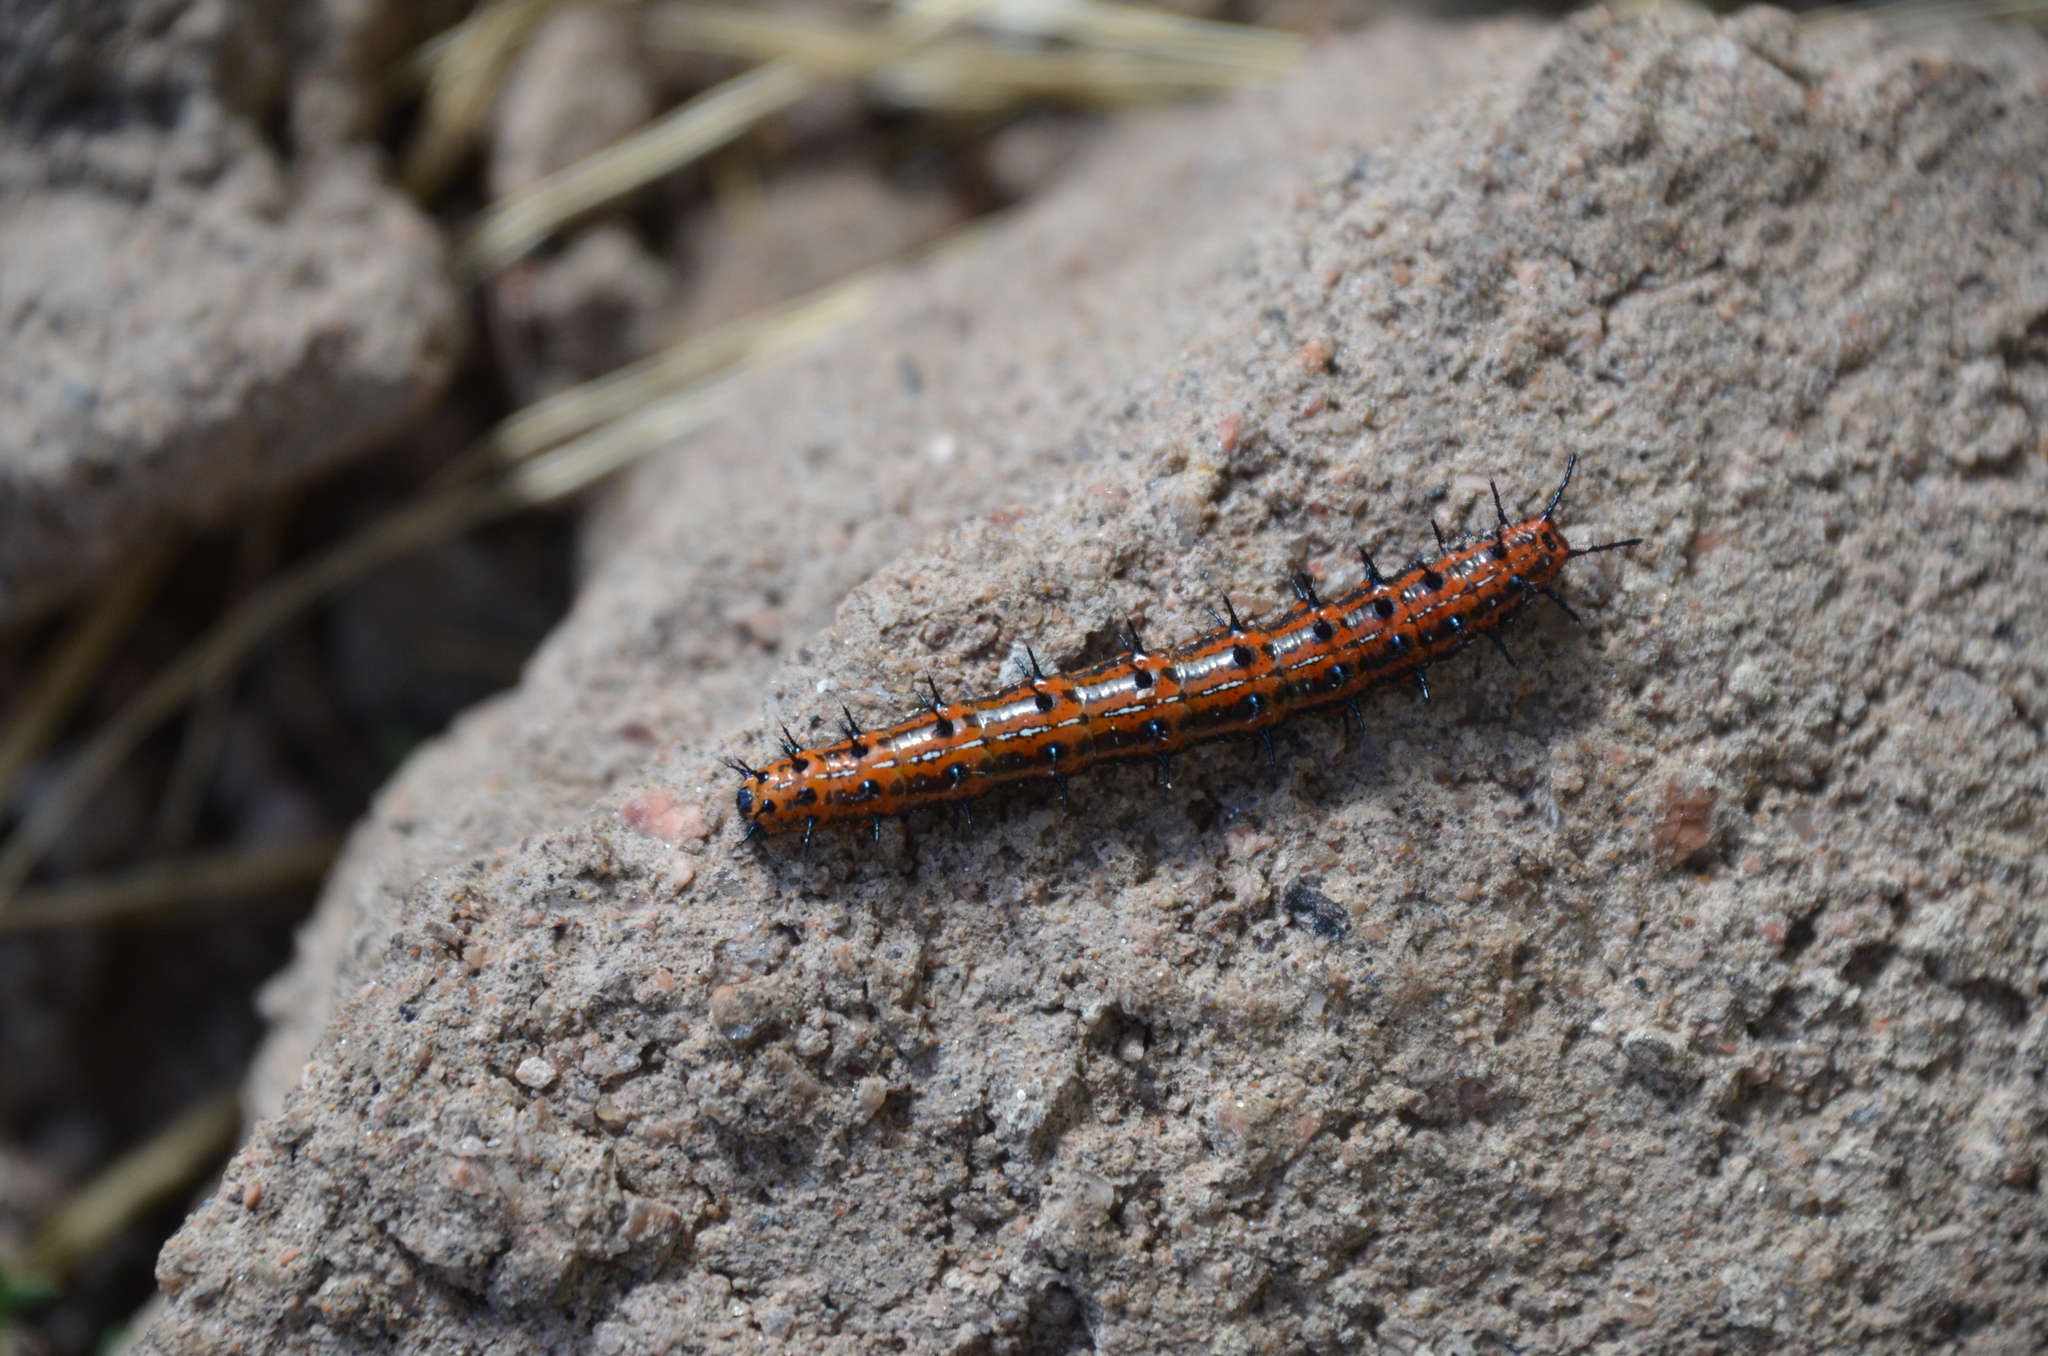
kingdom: Animalia
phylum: Arthropoda
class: Insecta
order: Lepidoptera
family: Nymphalidae
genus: Euptoieta
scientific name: Euptoieta hortensia
